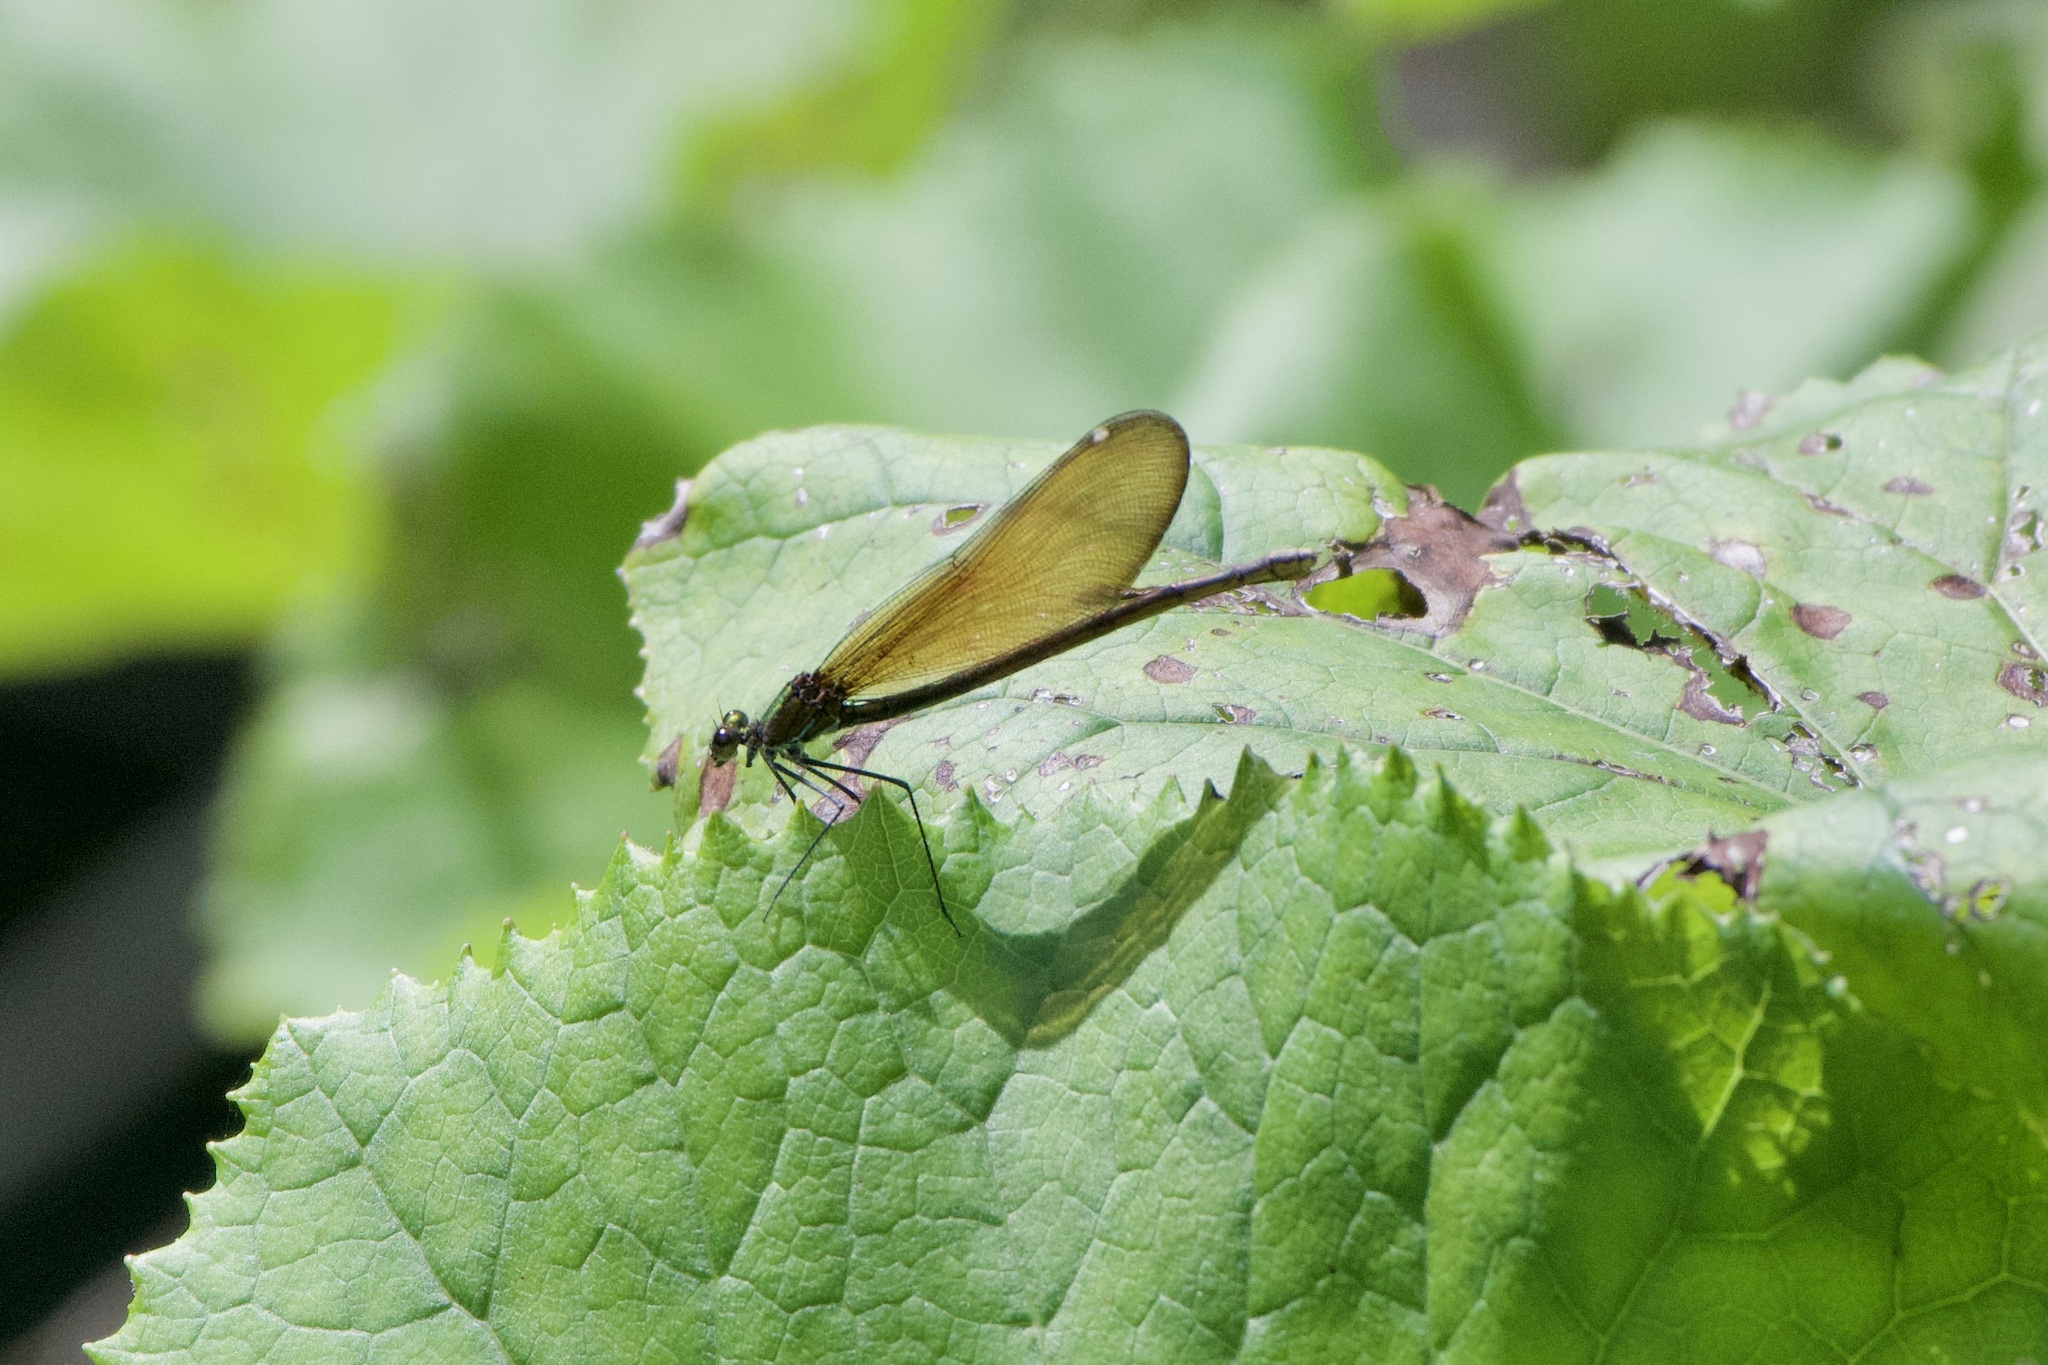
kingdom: Animalia
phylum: Arthropoda
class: Insecta
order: Odonata
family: Calopterygidae
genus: Calopteryx
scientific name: Calopteryx virgo
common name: Beautiful demoiselle
